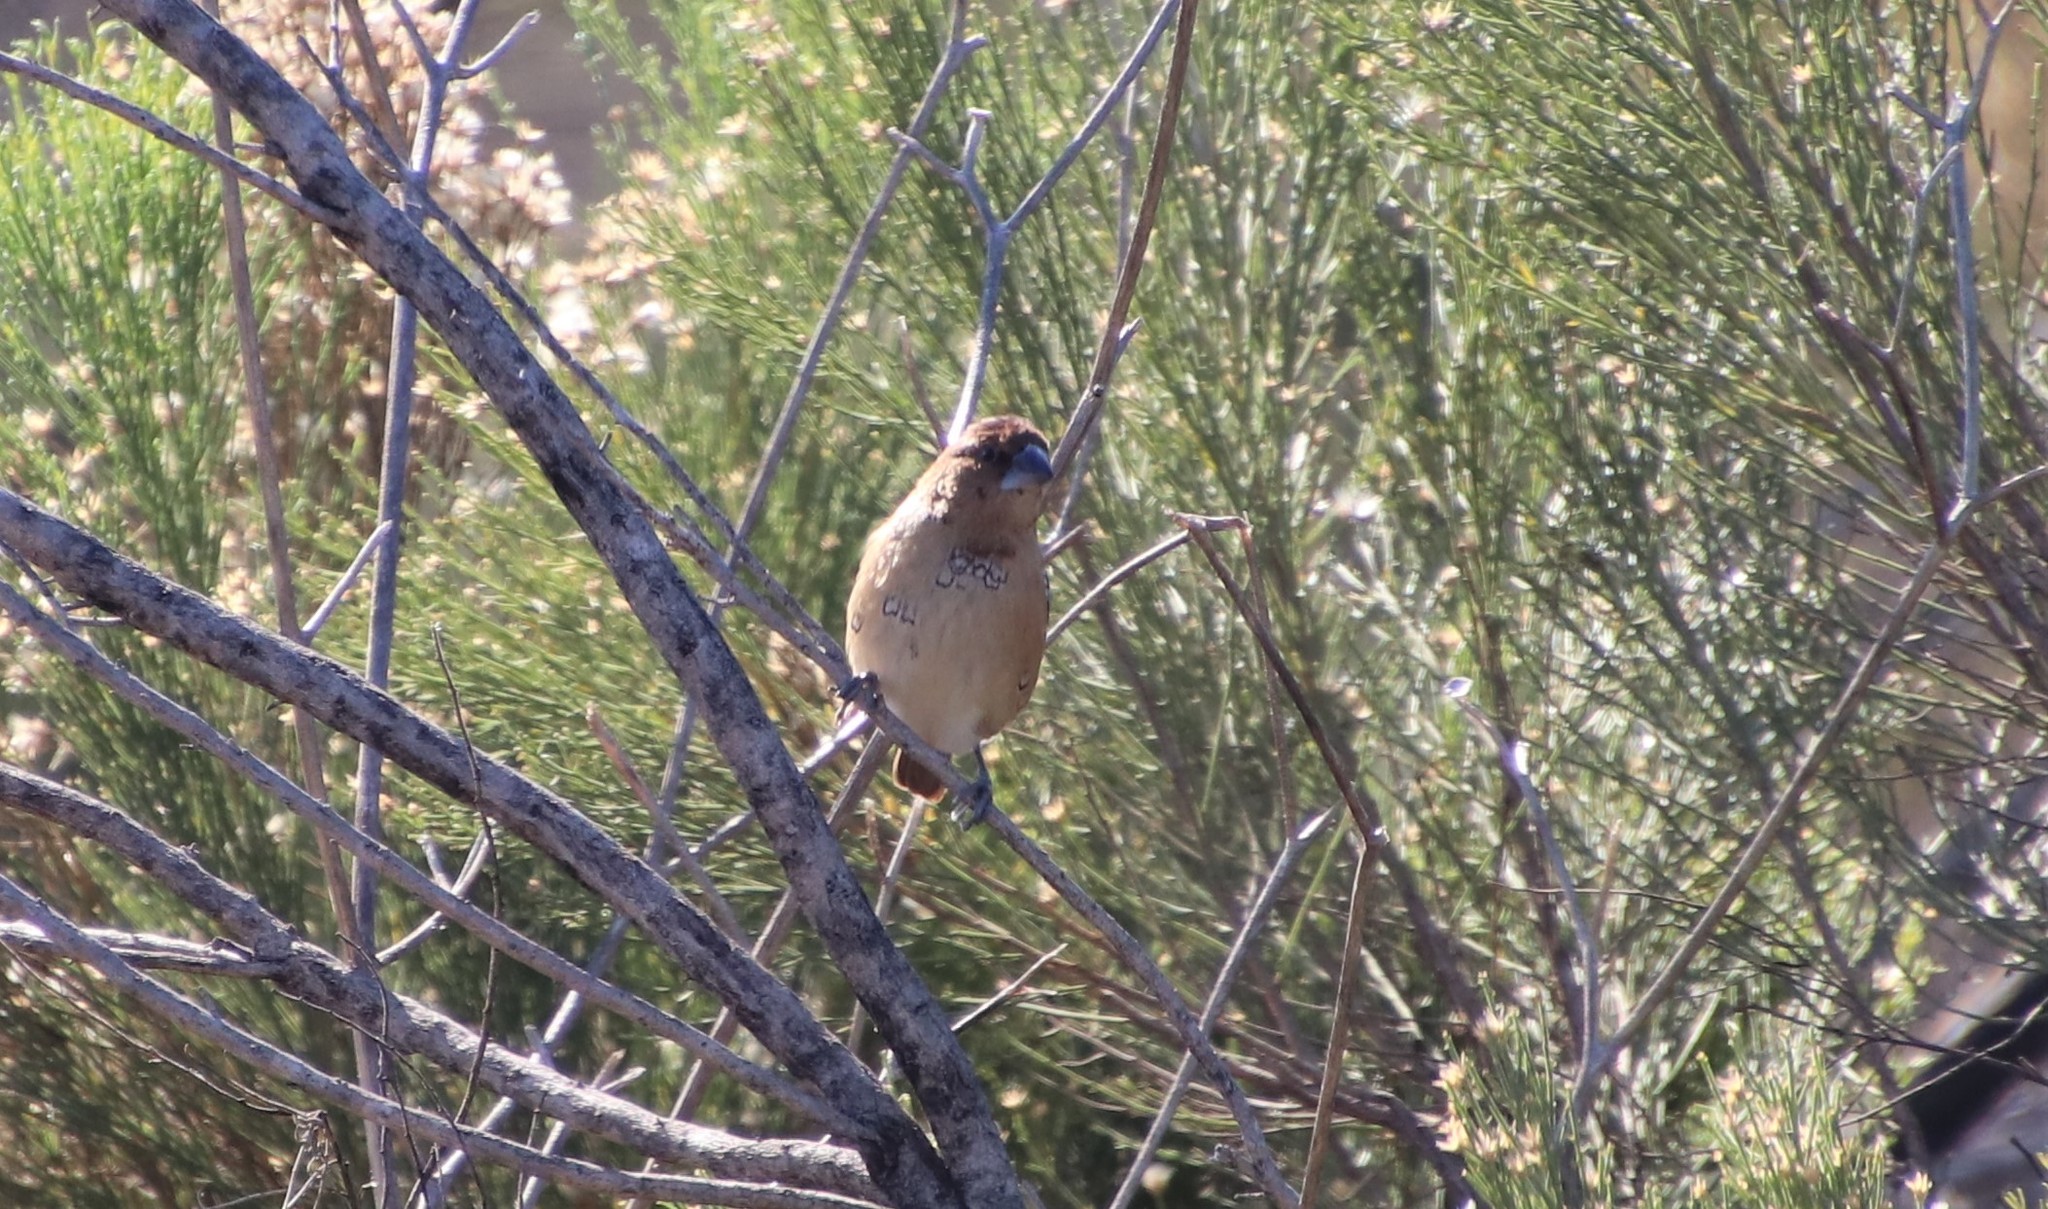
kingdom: Animalia
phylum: Chordata
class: Aves
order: Passeriformes
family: Estrildidae
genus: Lonchura
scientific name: Lonchura punctulata
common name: Scaly-breasted munia
